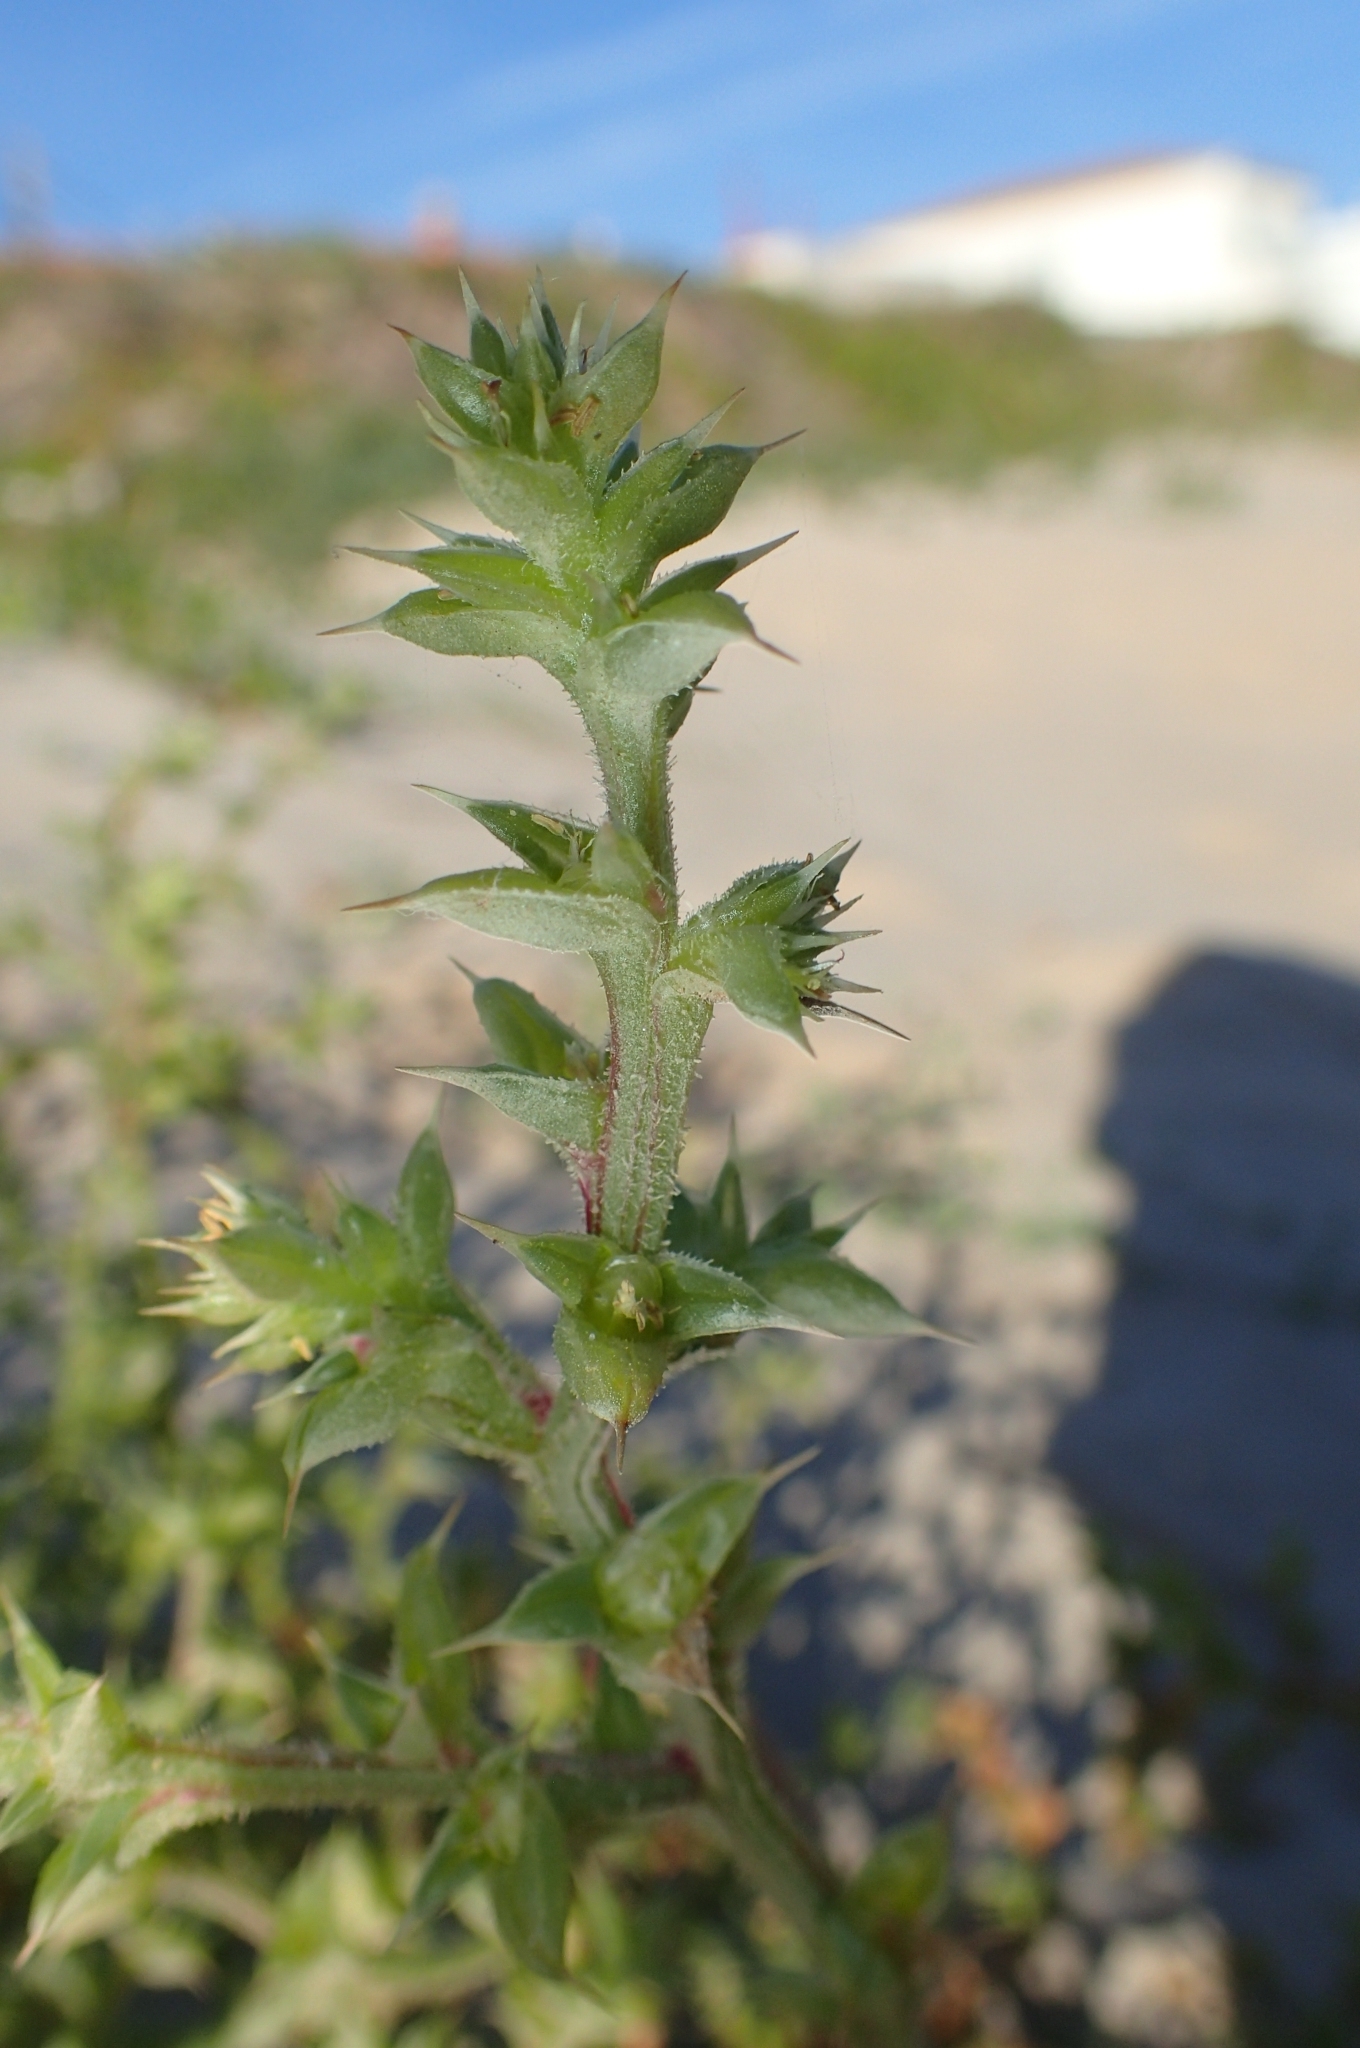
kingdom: Plantae
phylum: Tracheophyta
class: Magnoliopsida
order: Caryophyllales
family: Amaranthaceae
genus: Salsola
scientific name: Salsola kali
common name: Saltwort
